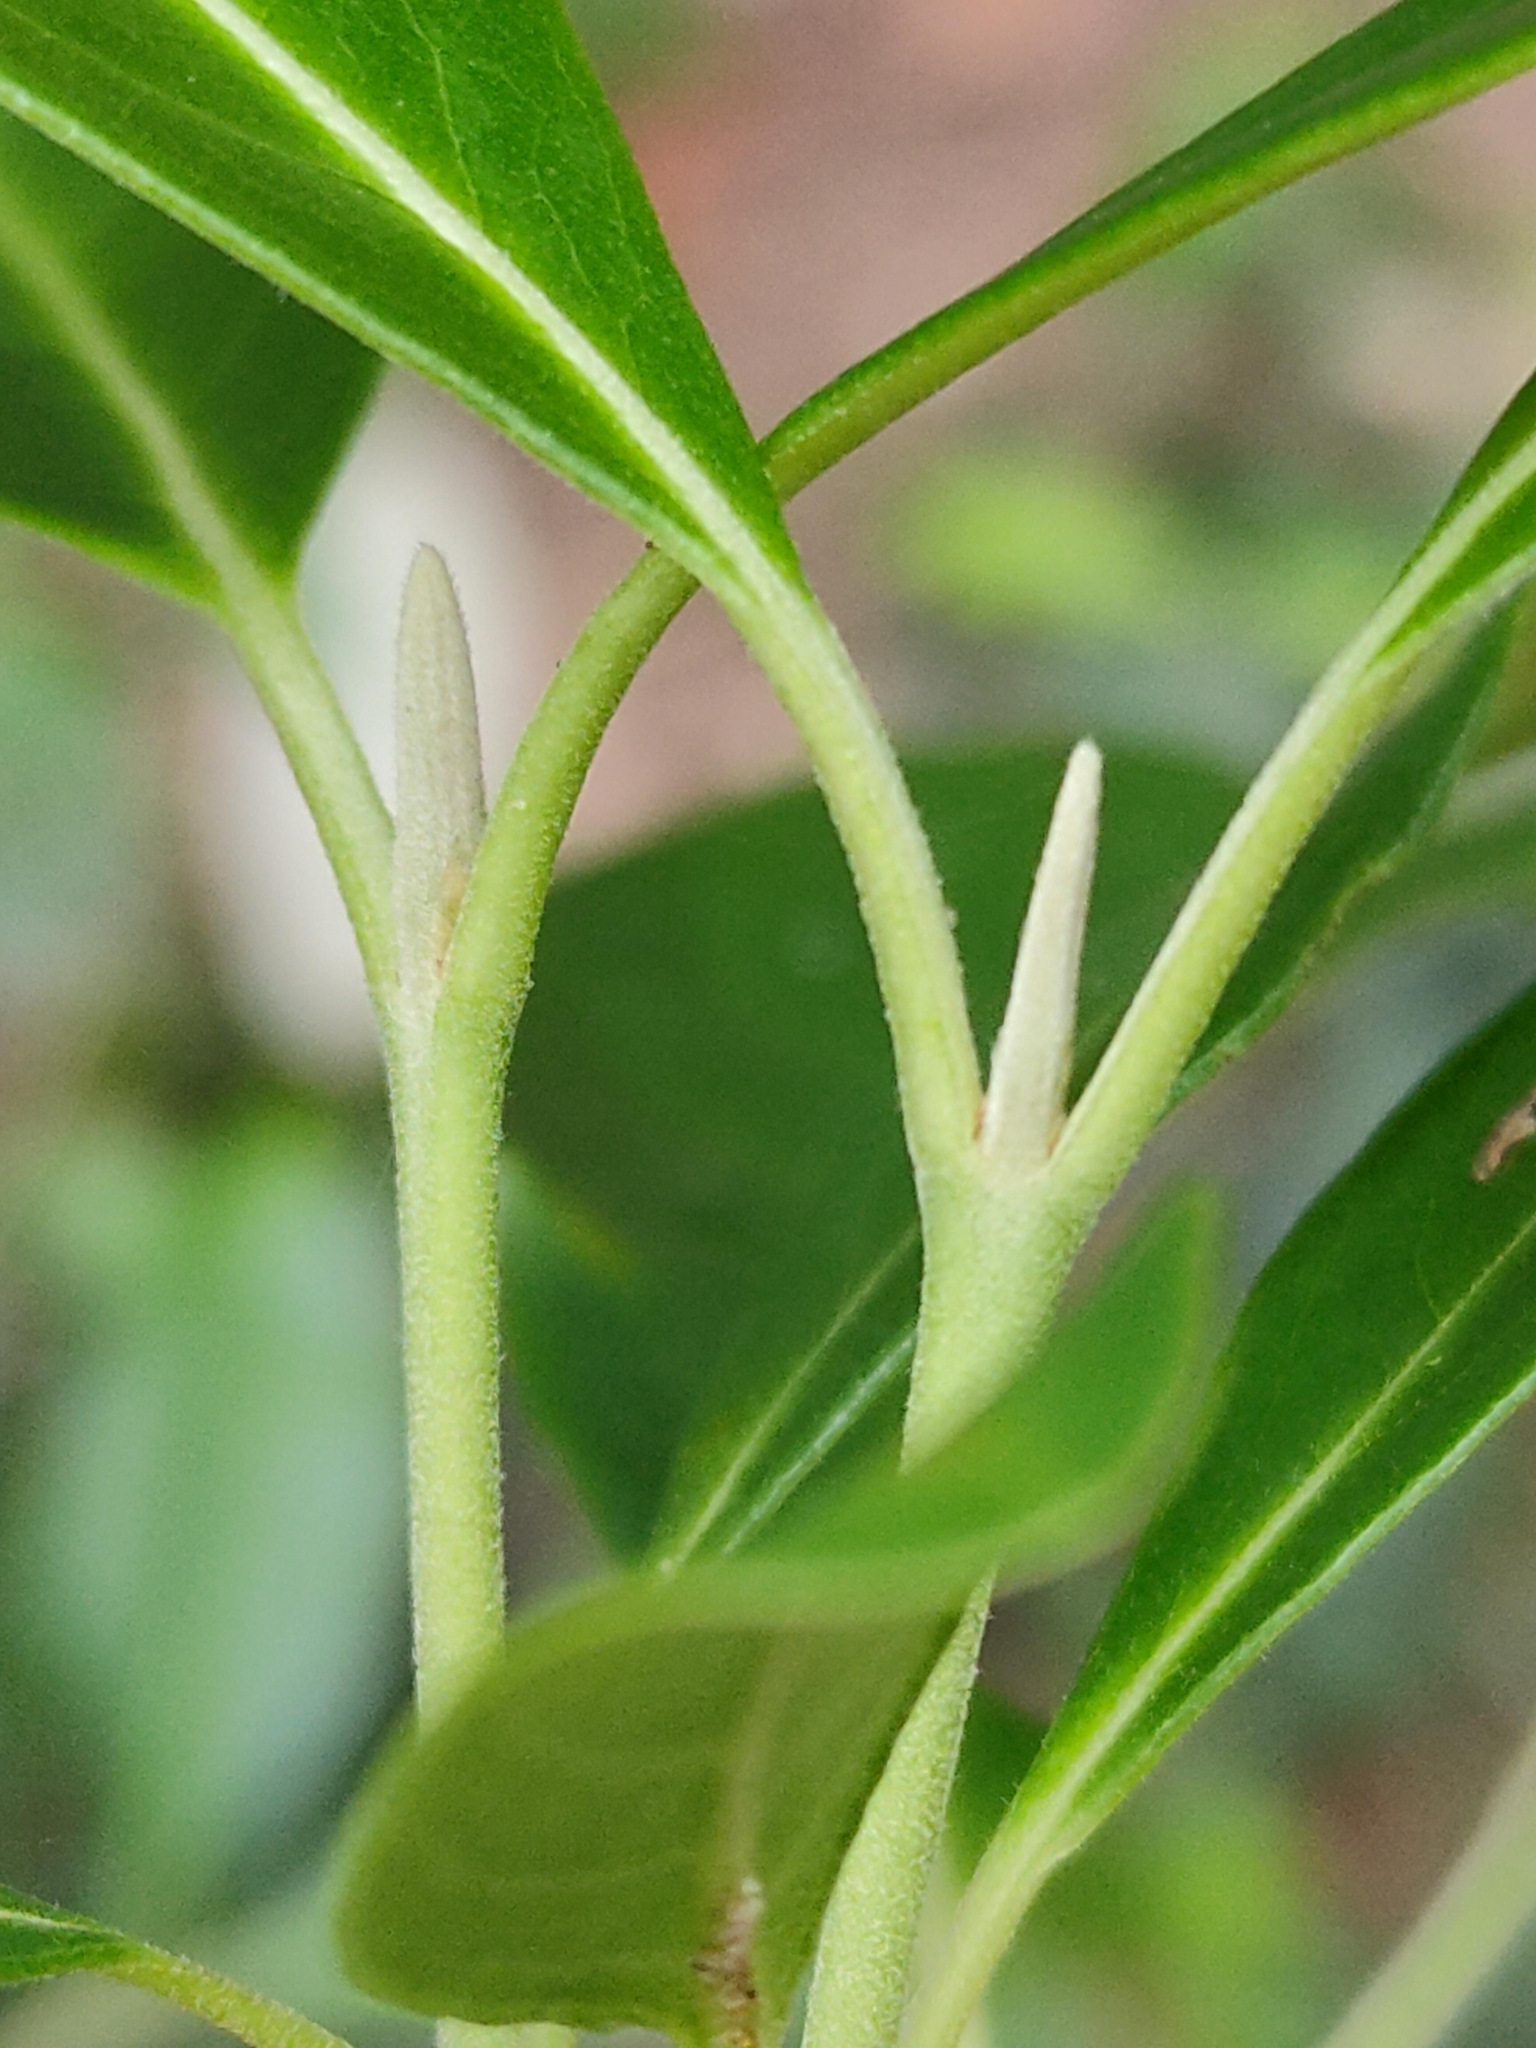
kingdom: Plantae
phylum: Tracheophyta
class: Magnoliopsida
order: Myrtales
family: Myrtaceae
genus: Rhodomyrtus
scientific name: Rhodomyrtus psidioides
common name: Native-guava
